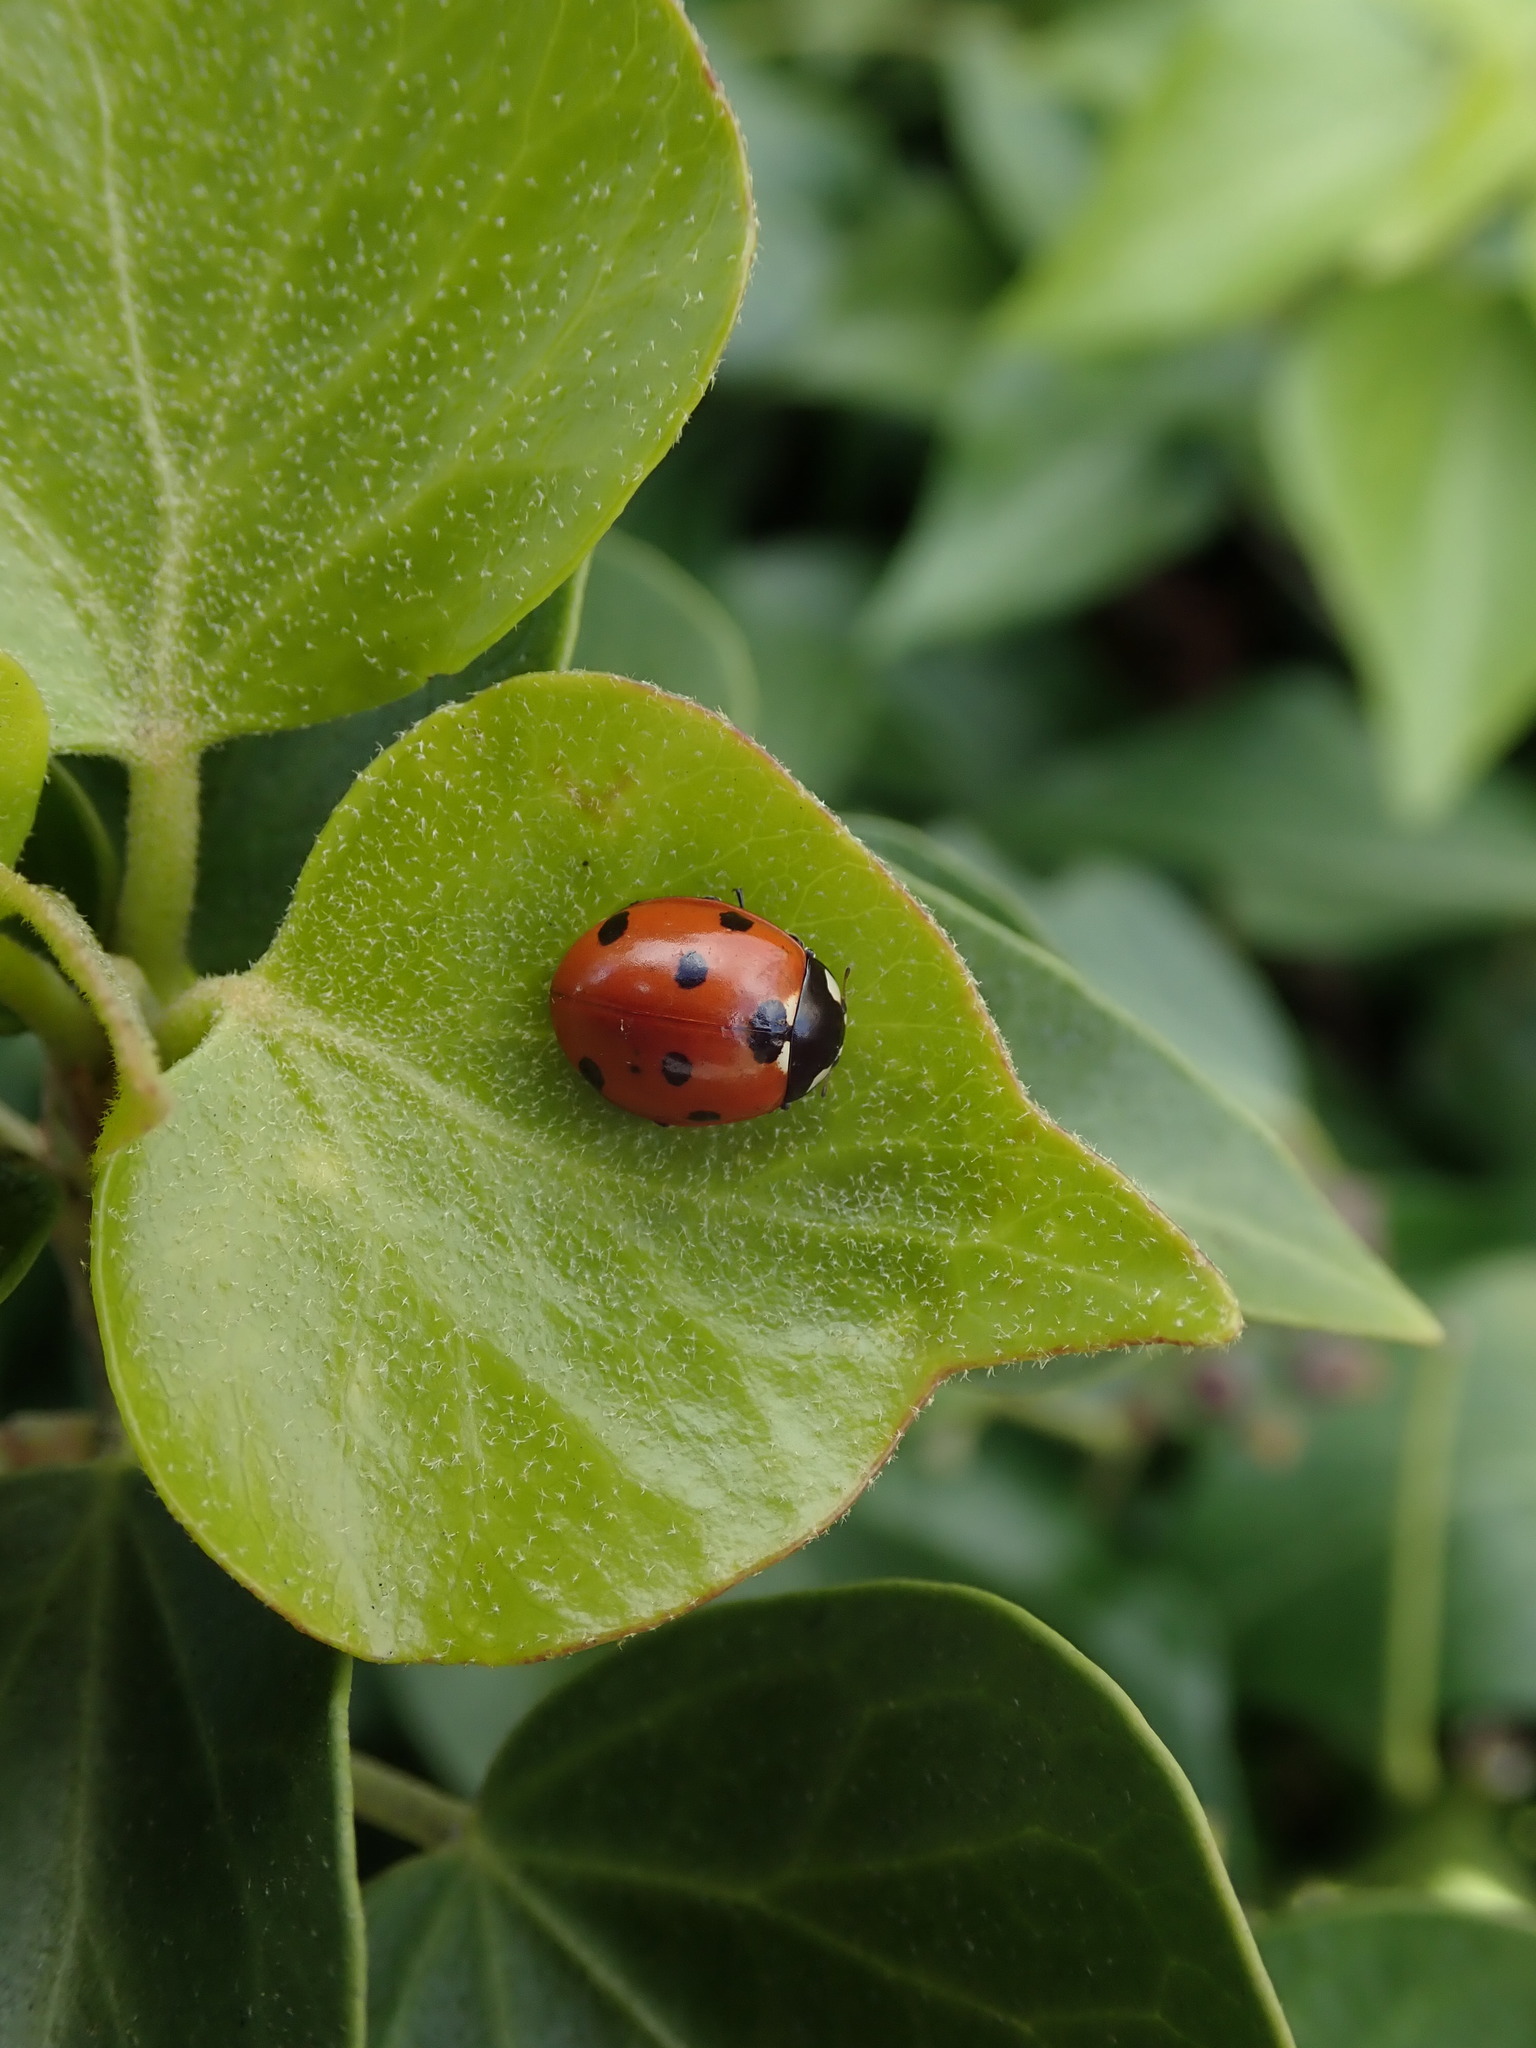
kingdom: Animalia
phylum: Arthropoda
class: Insecta
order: Coleoptera
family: Coccinellidae
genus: Coccinella
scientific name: Coccinella septempunctata
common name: Sevenspotted lady beetle
